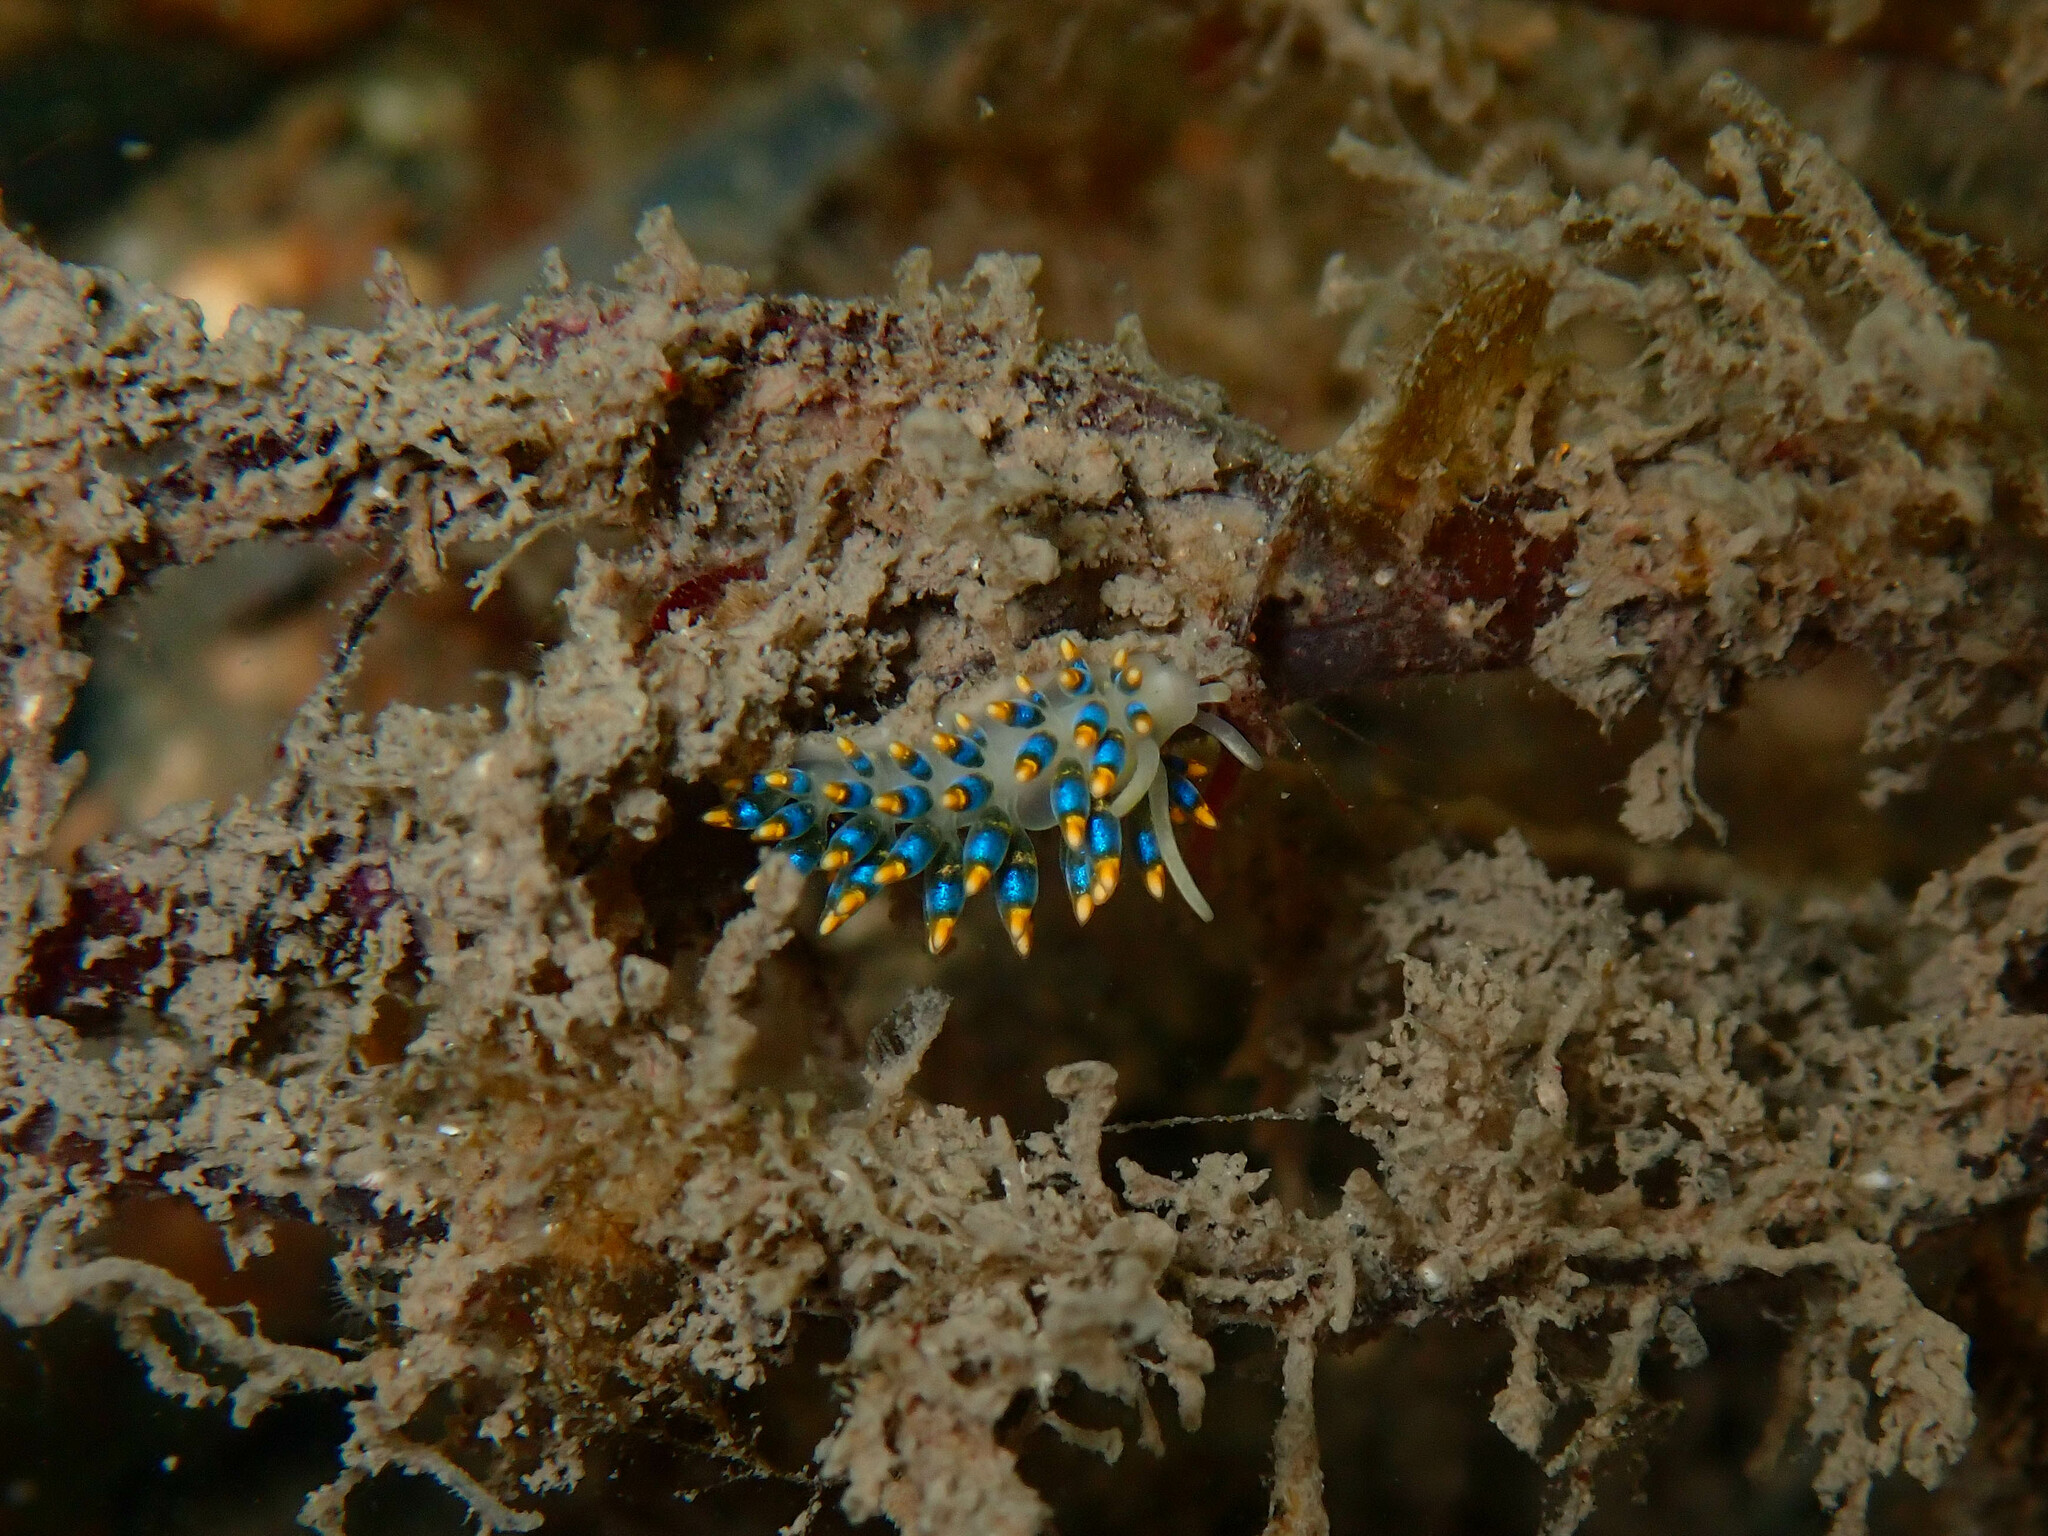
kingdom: Animalia
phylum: Mollusca
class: Gastropoda
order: Nudibranchia
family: Trinchesiidae
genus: Trinchesia
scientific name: Trinchesia cuanensis
